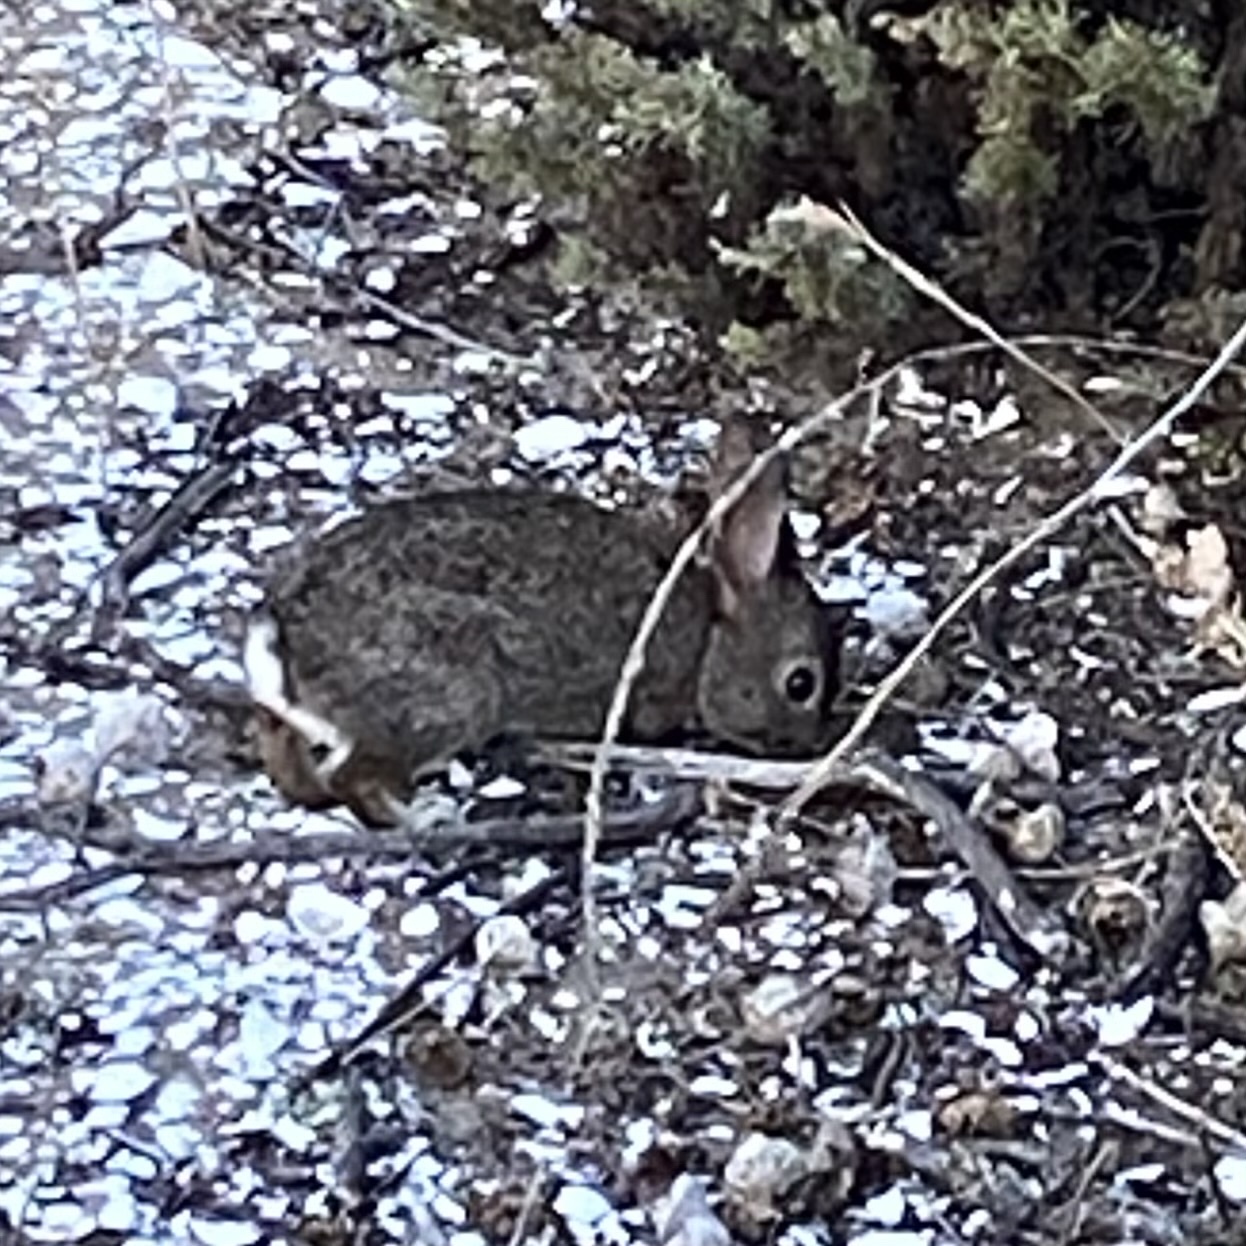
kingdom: Animalia
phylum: Chordata
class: Mammalia
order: Lagomorpha
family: Leporidae
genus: Sylvilagus
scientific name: Sylvilagus bachmani
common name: Brush rabbit
